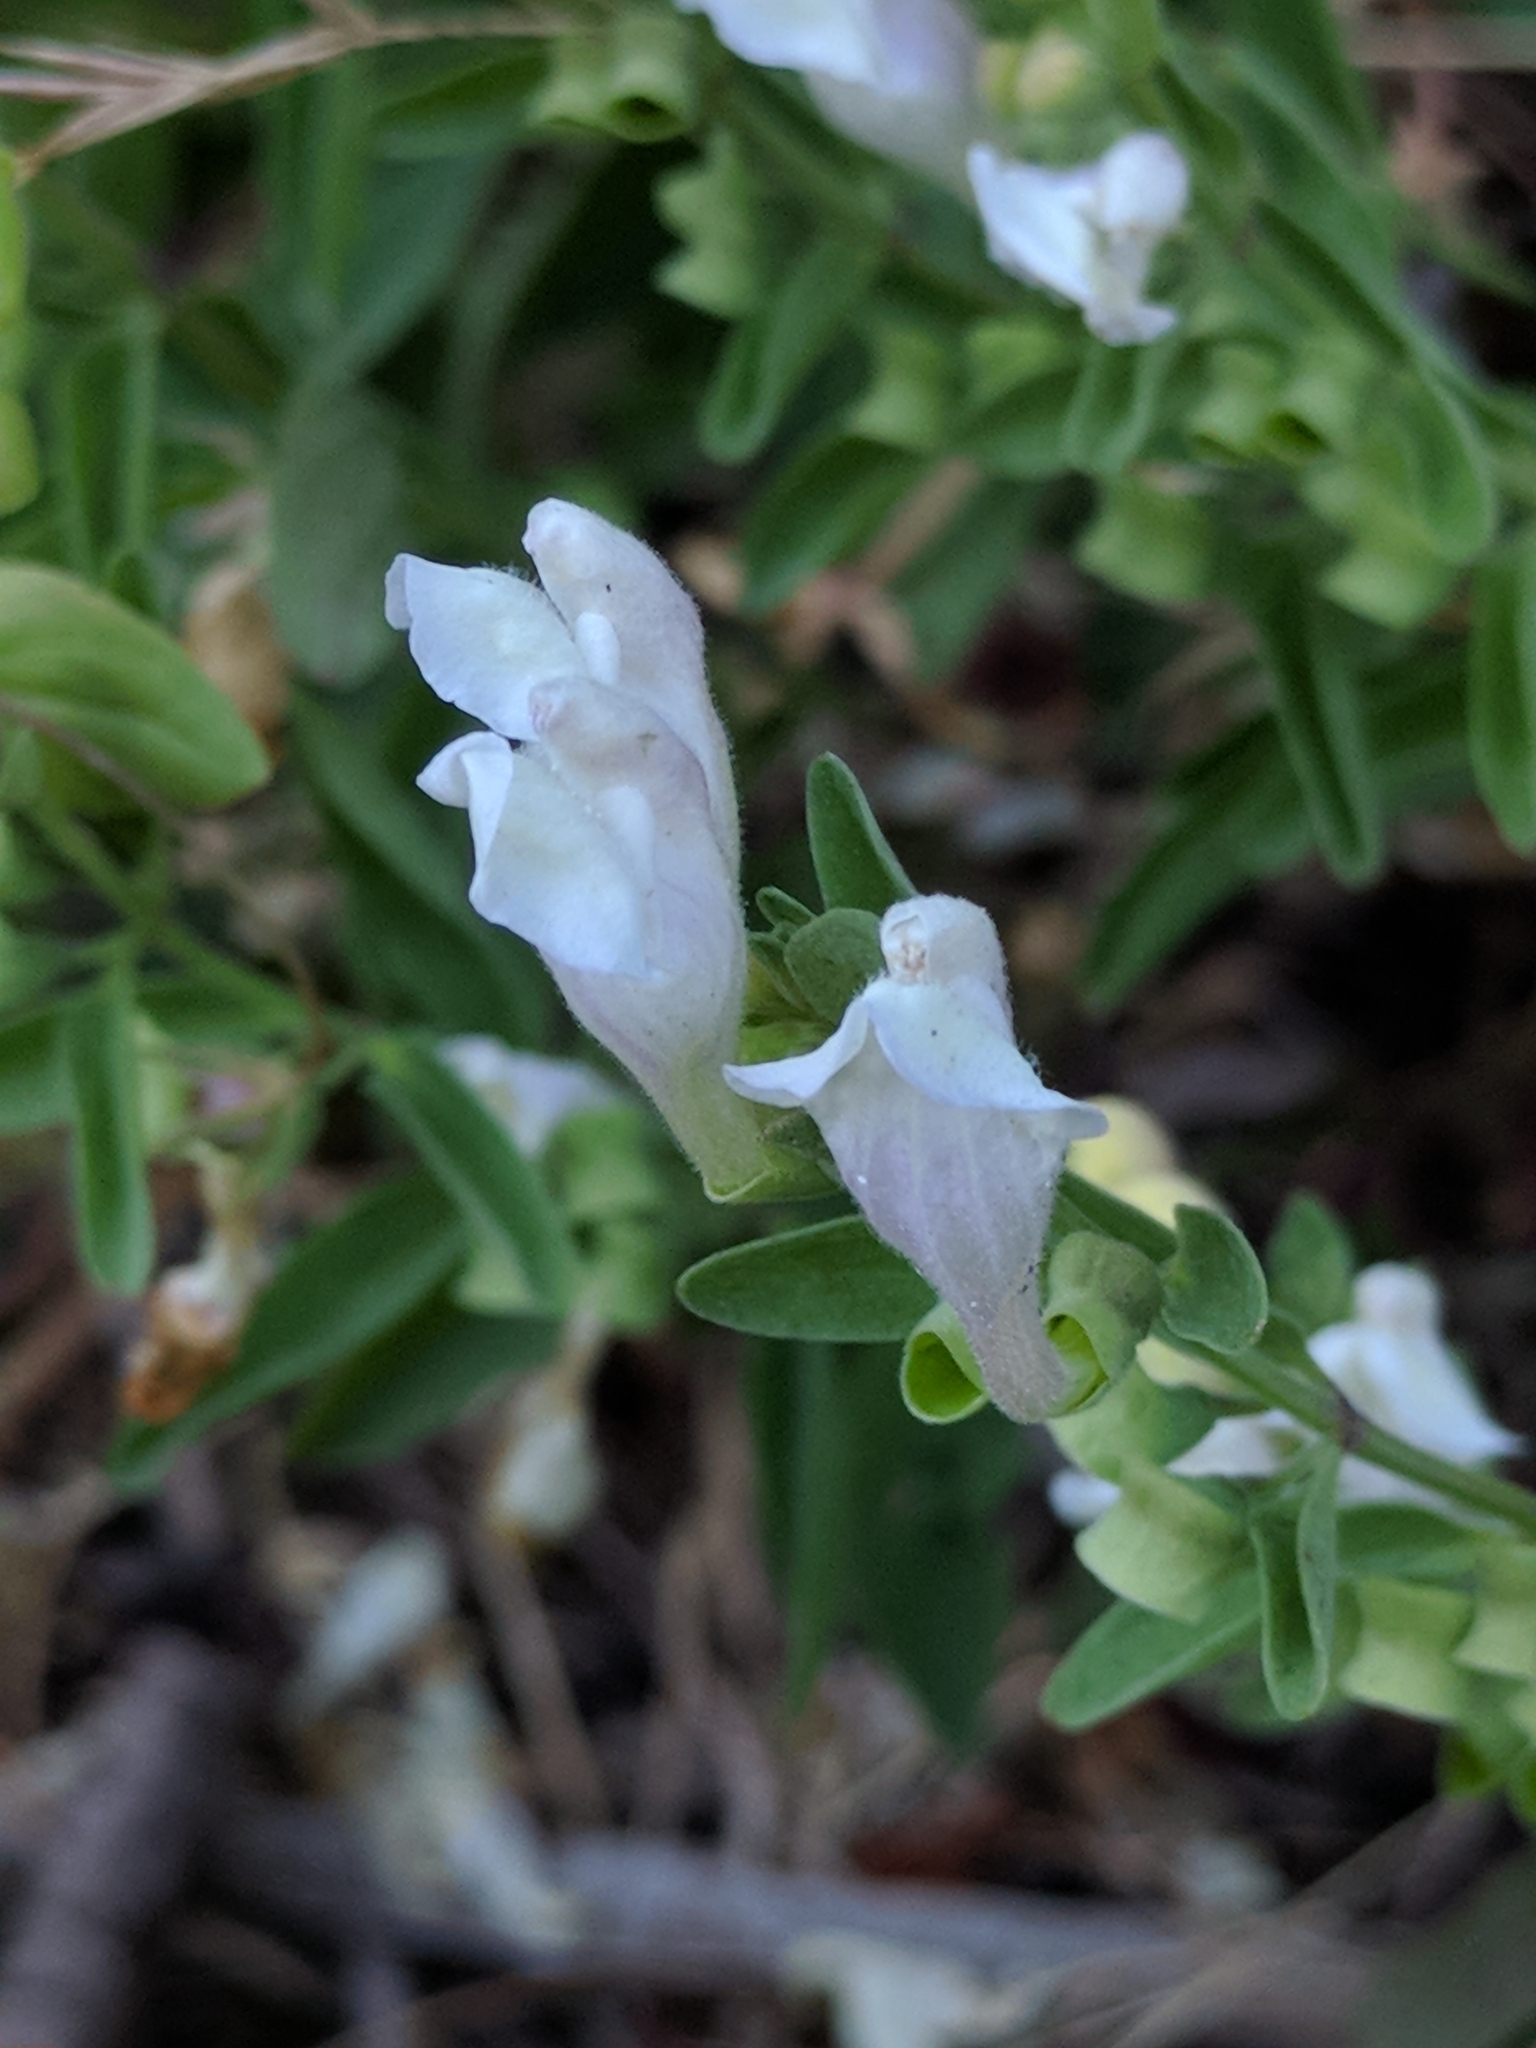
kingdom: Plantae
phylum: Tracheophyta
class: Magnoliopsida
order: Lamiales
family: Lamiaceae
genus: Scutellaria
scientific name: Scutellaria californica
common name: California scullcap
